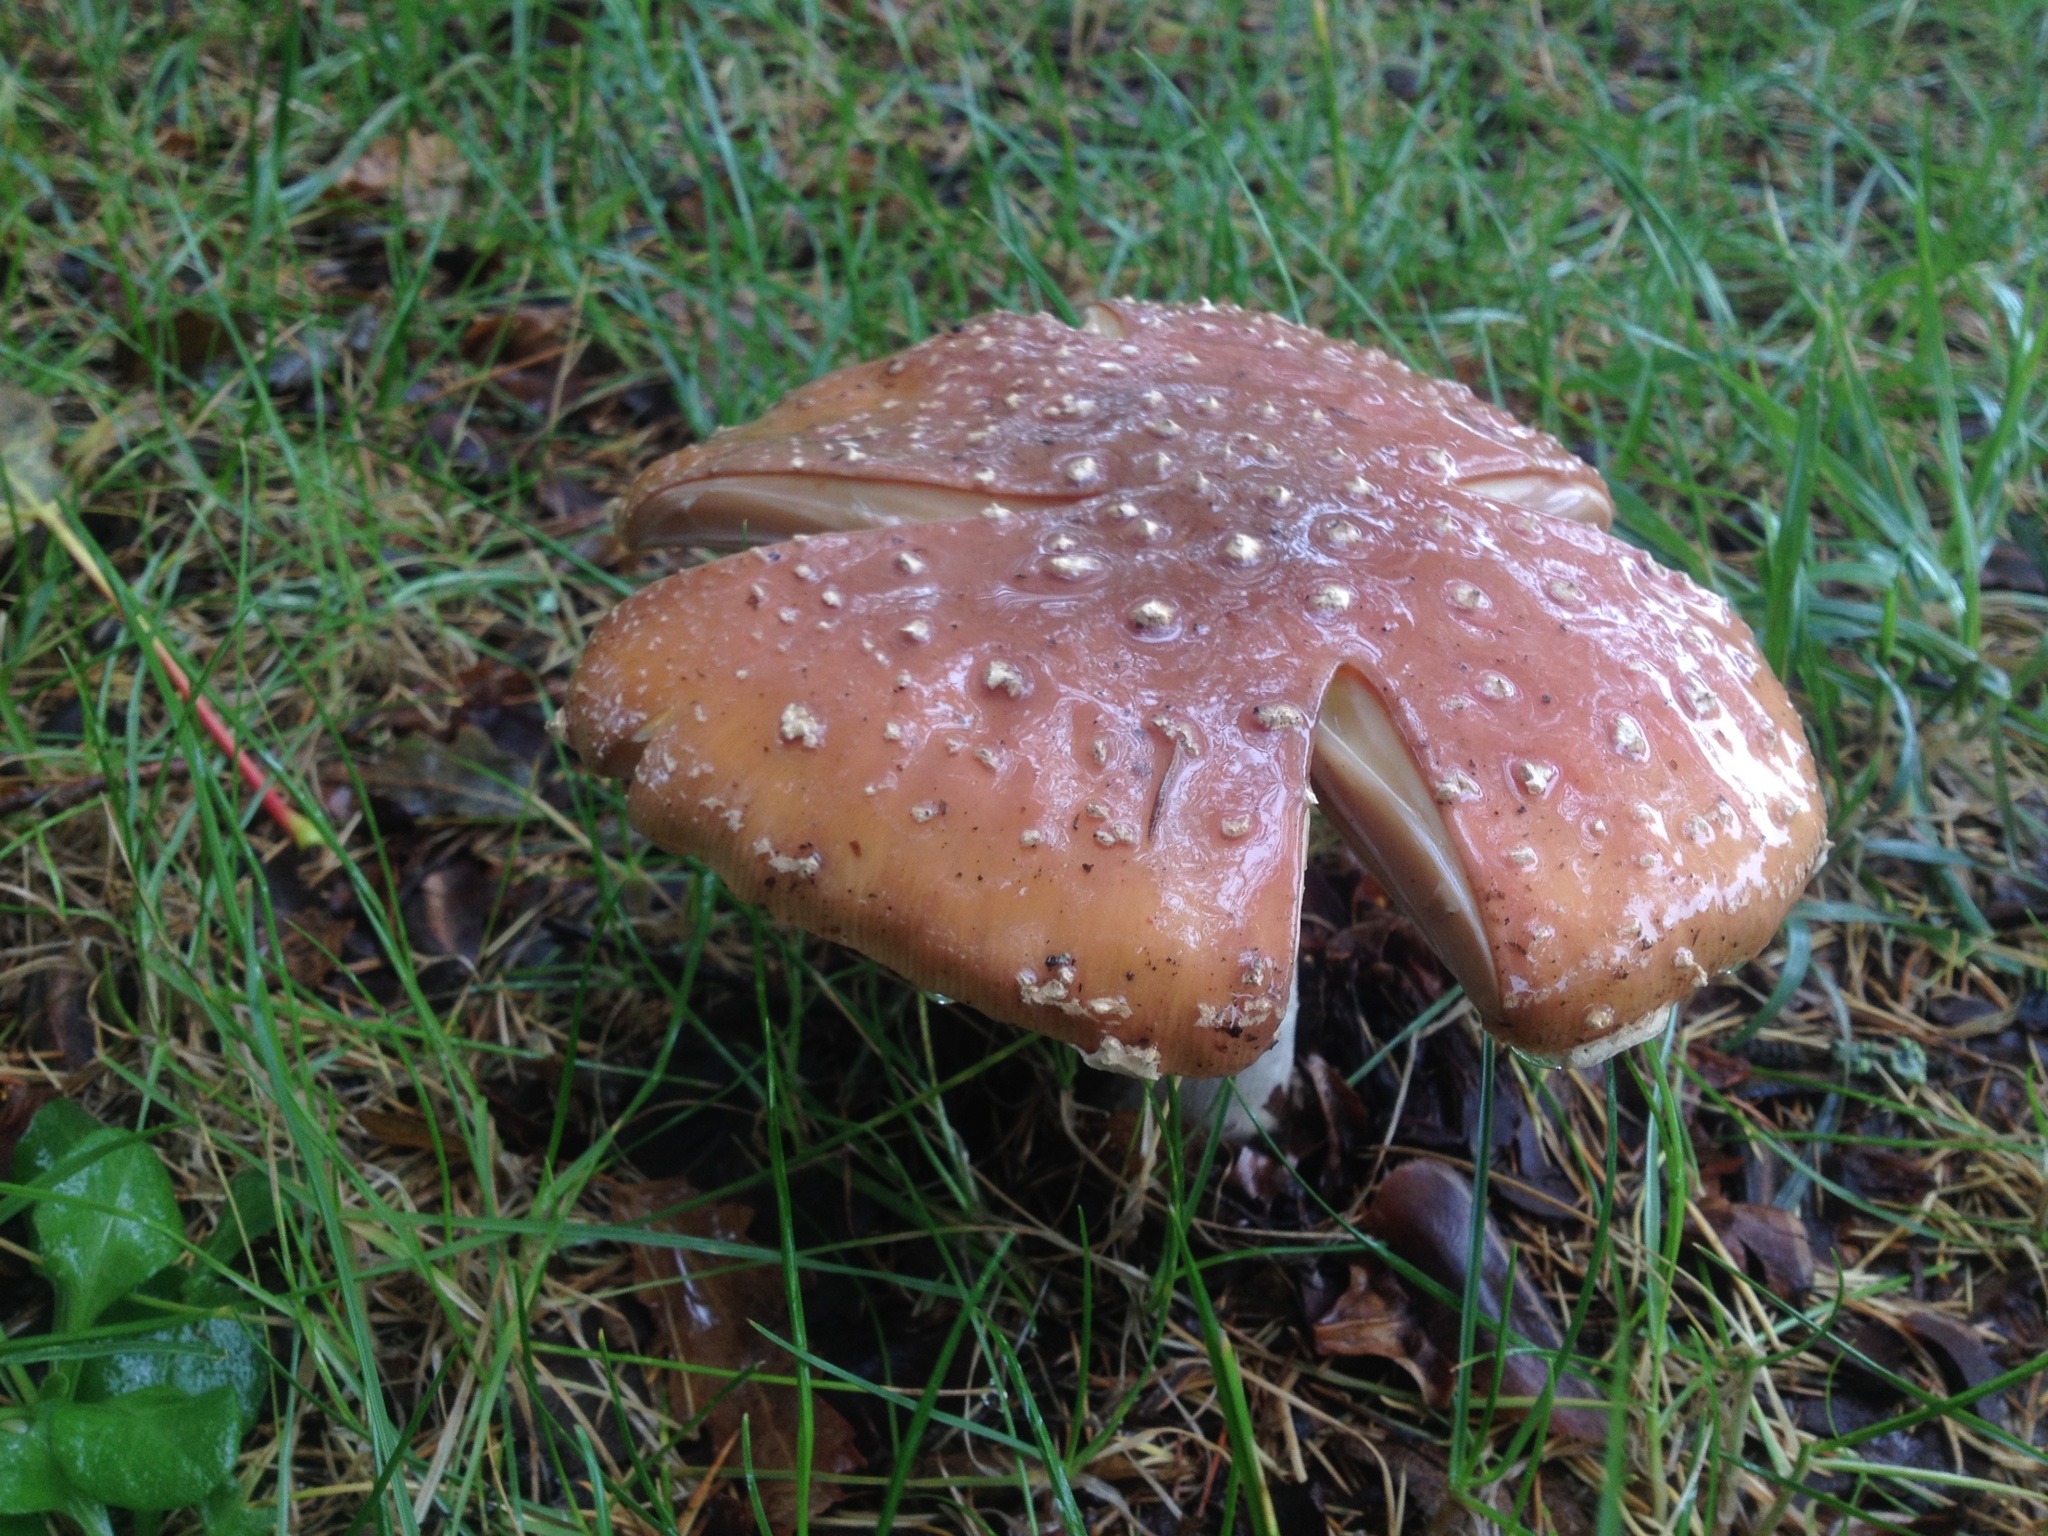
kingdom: Fungi
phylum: Basidiomycota
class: Agaricomycetes
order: Agaricales
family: Amanitaceae
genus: Amanita
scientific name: Amanita muscaria
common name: Fly agaric
